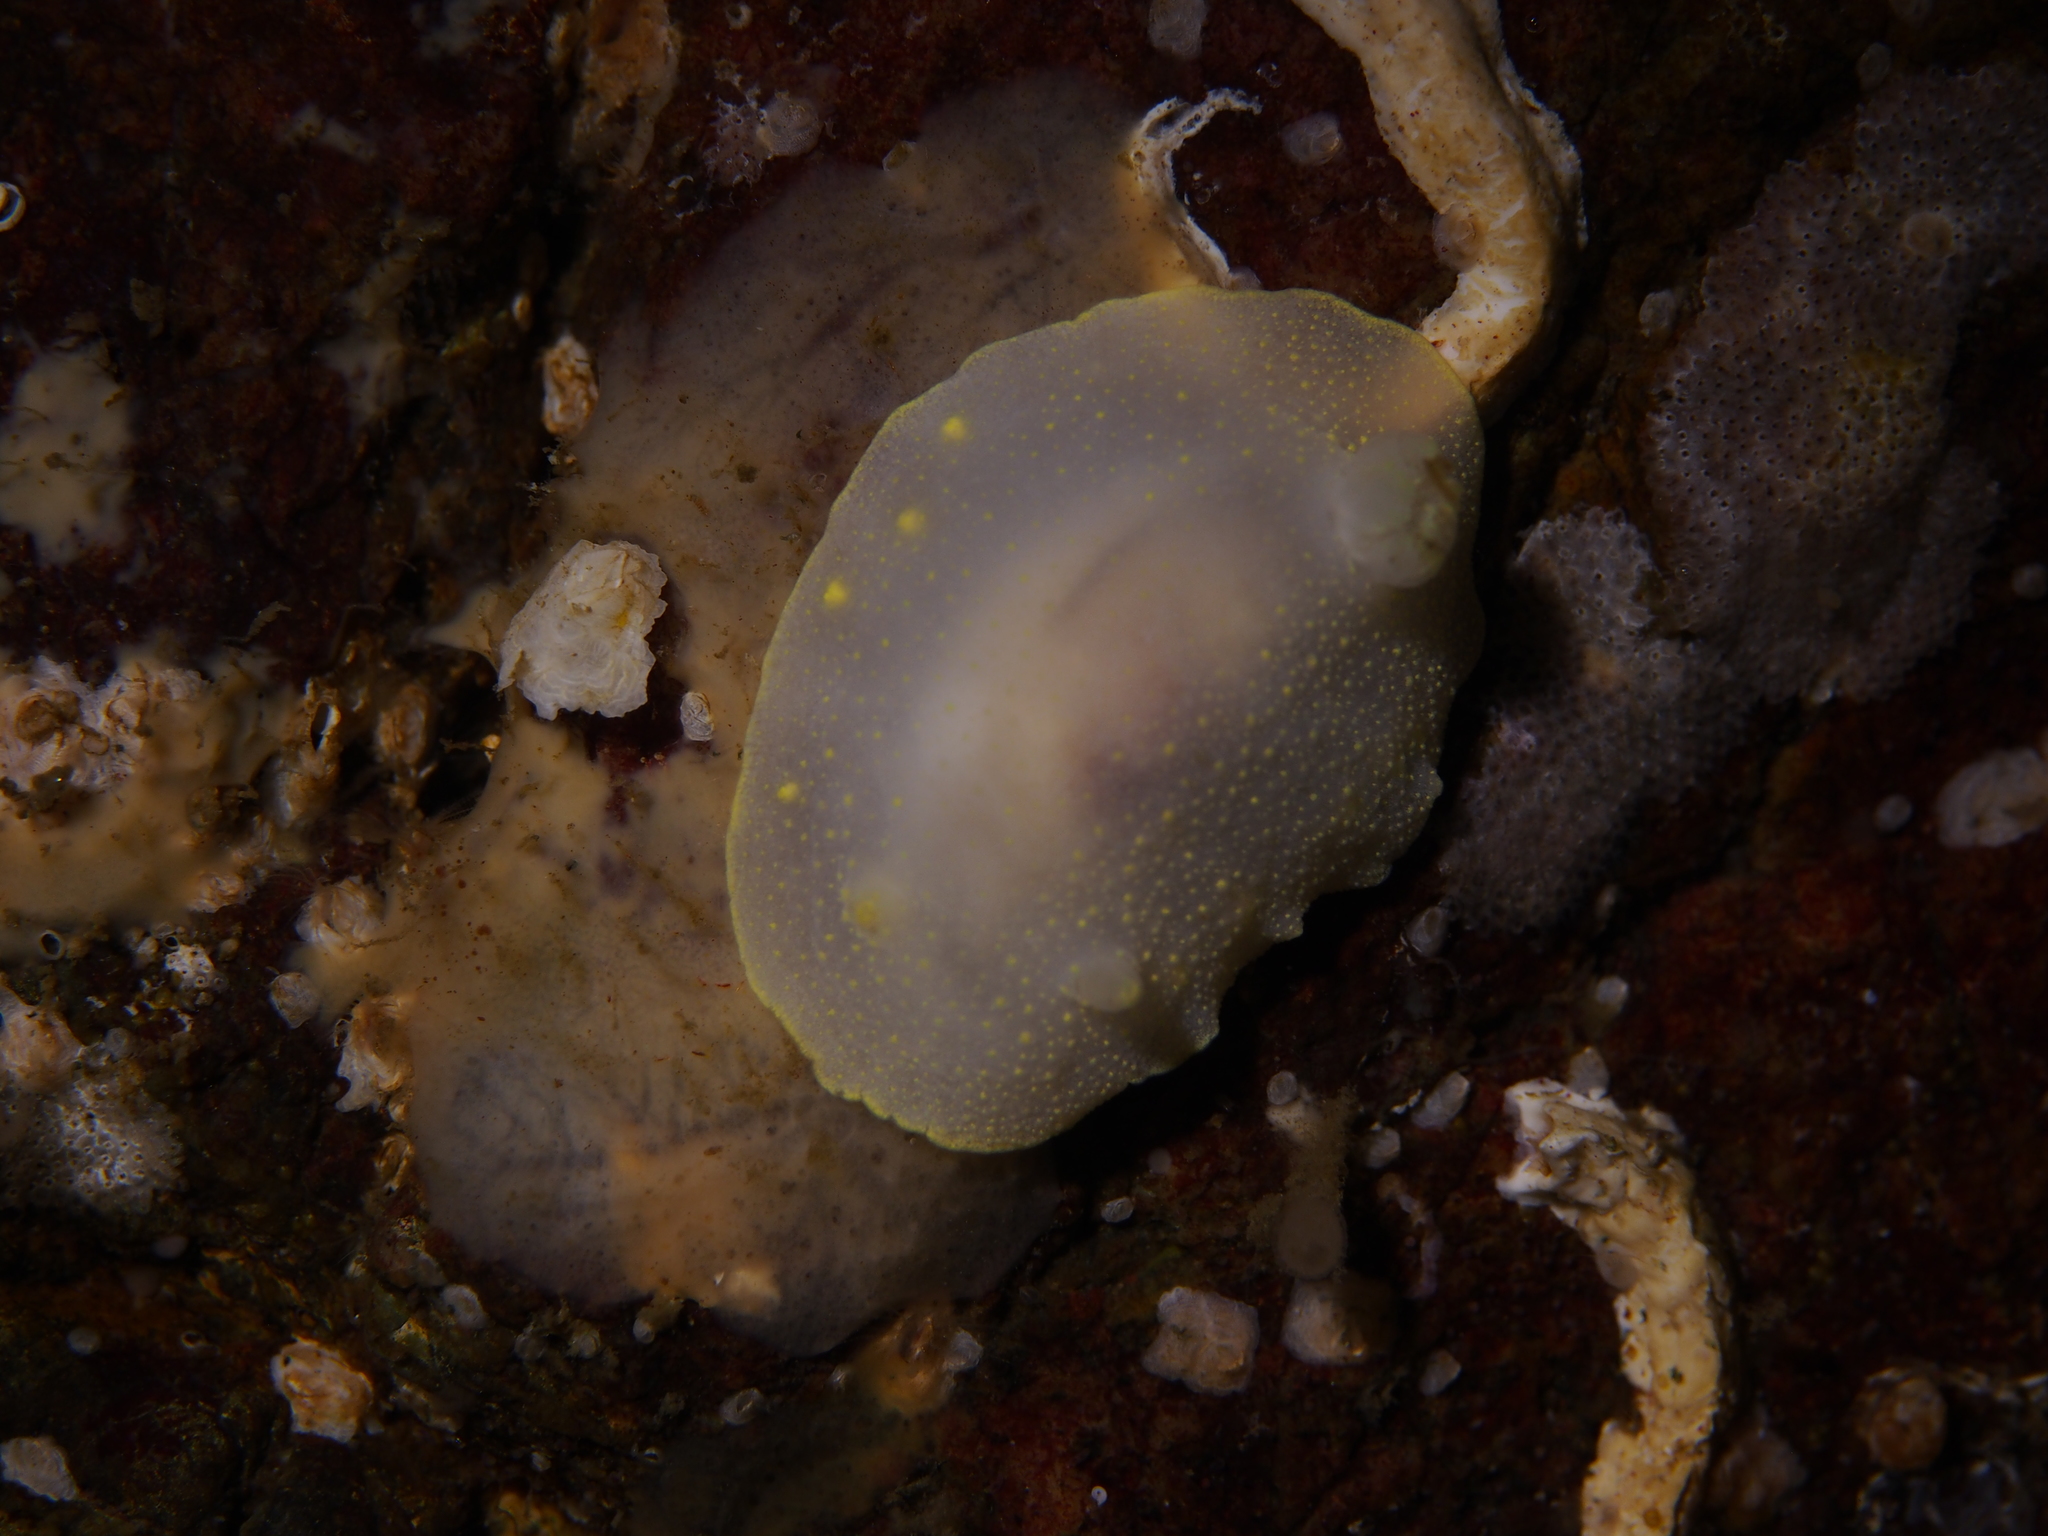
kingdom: Animalia
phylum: Mollusca
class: Gastropoda
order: Nudibranchia
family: Cadlinidae
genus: Cadlina
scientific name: Cadlina laevis
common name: White atlantic cadlina
